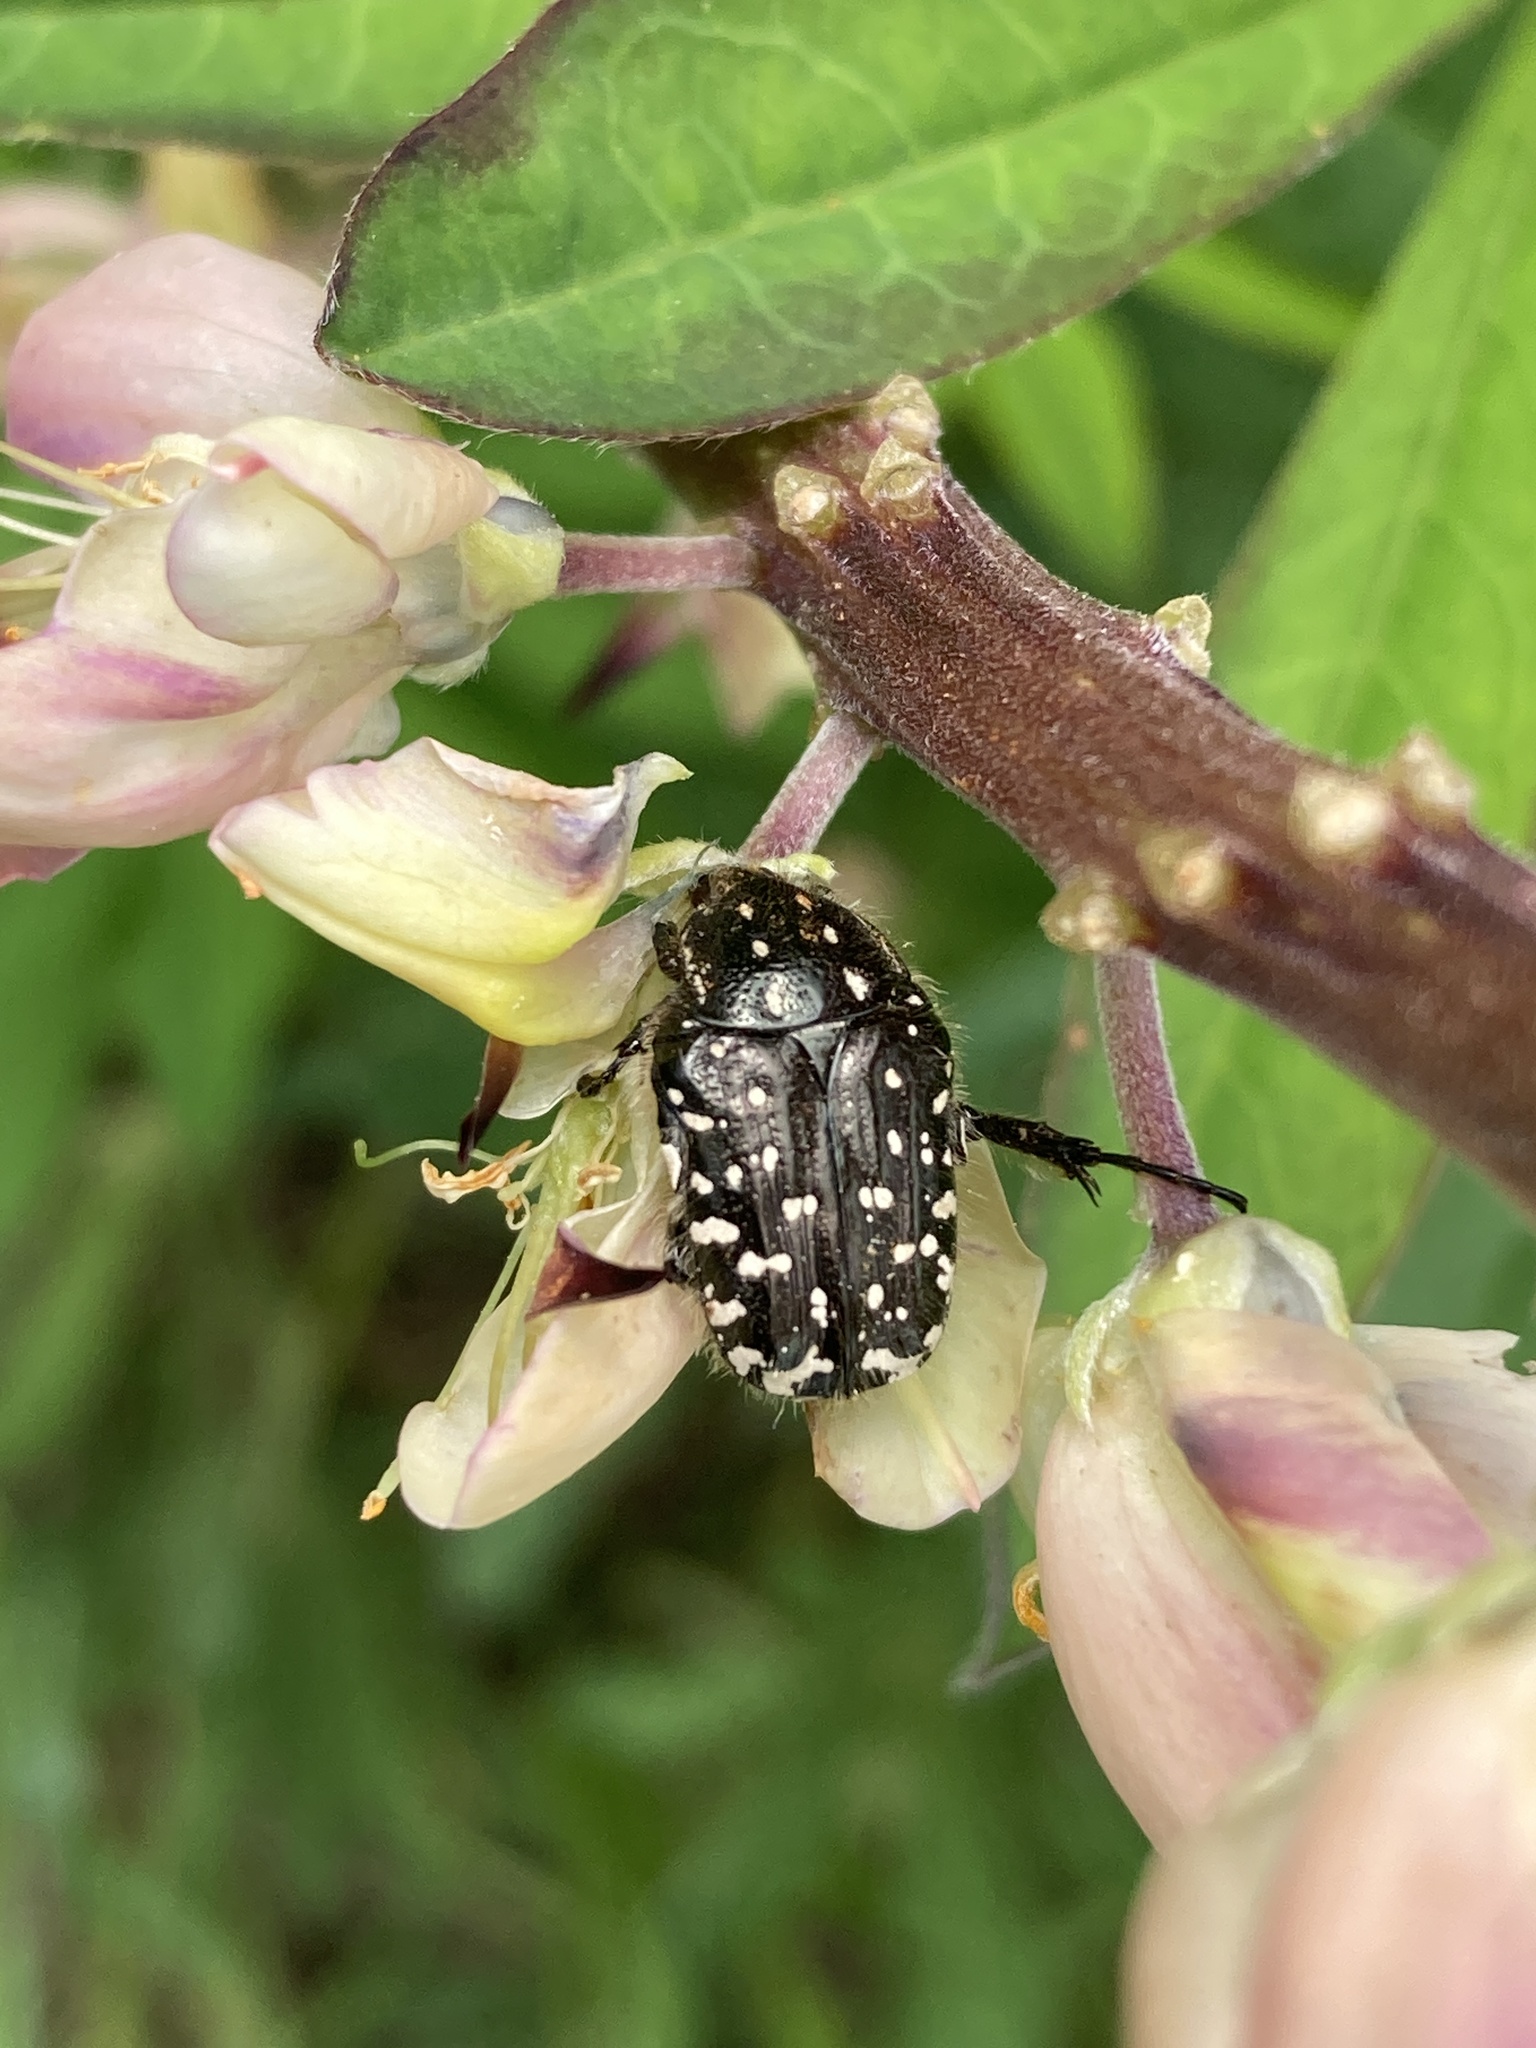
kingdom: Animalia
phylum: Arthropoda
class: Insecta
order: Coleoptera
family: Scarabaeidae
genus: Oxythyrea
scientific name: Oxythyrea funesta
